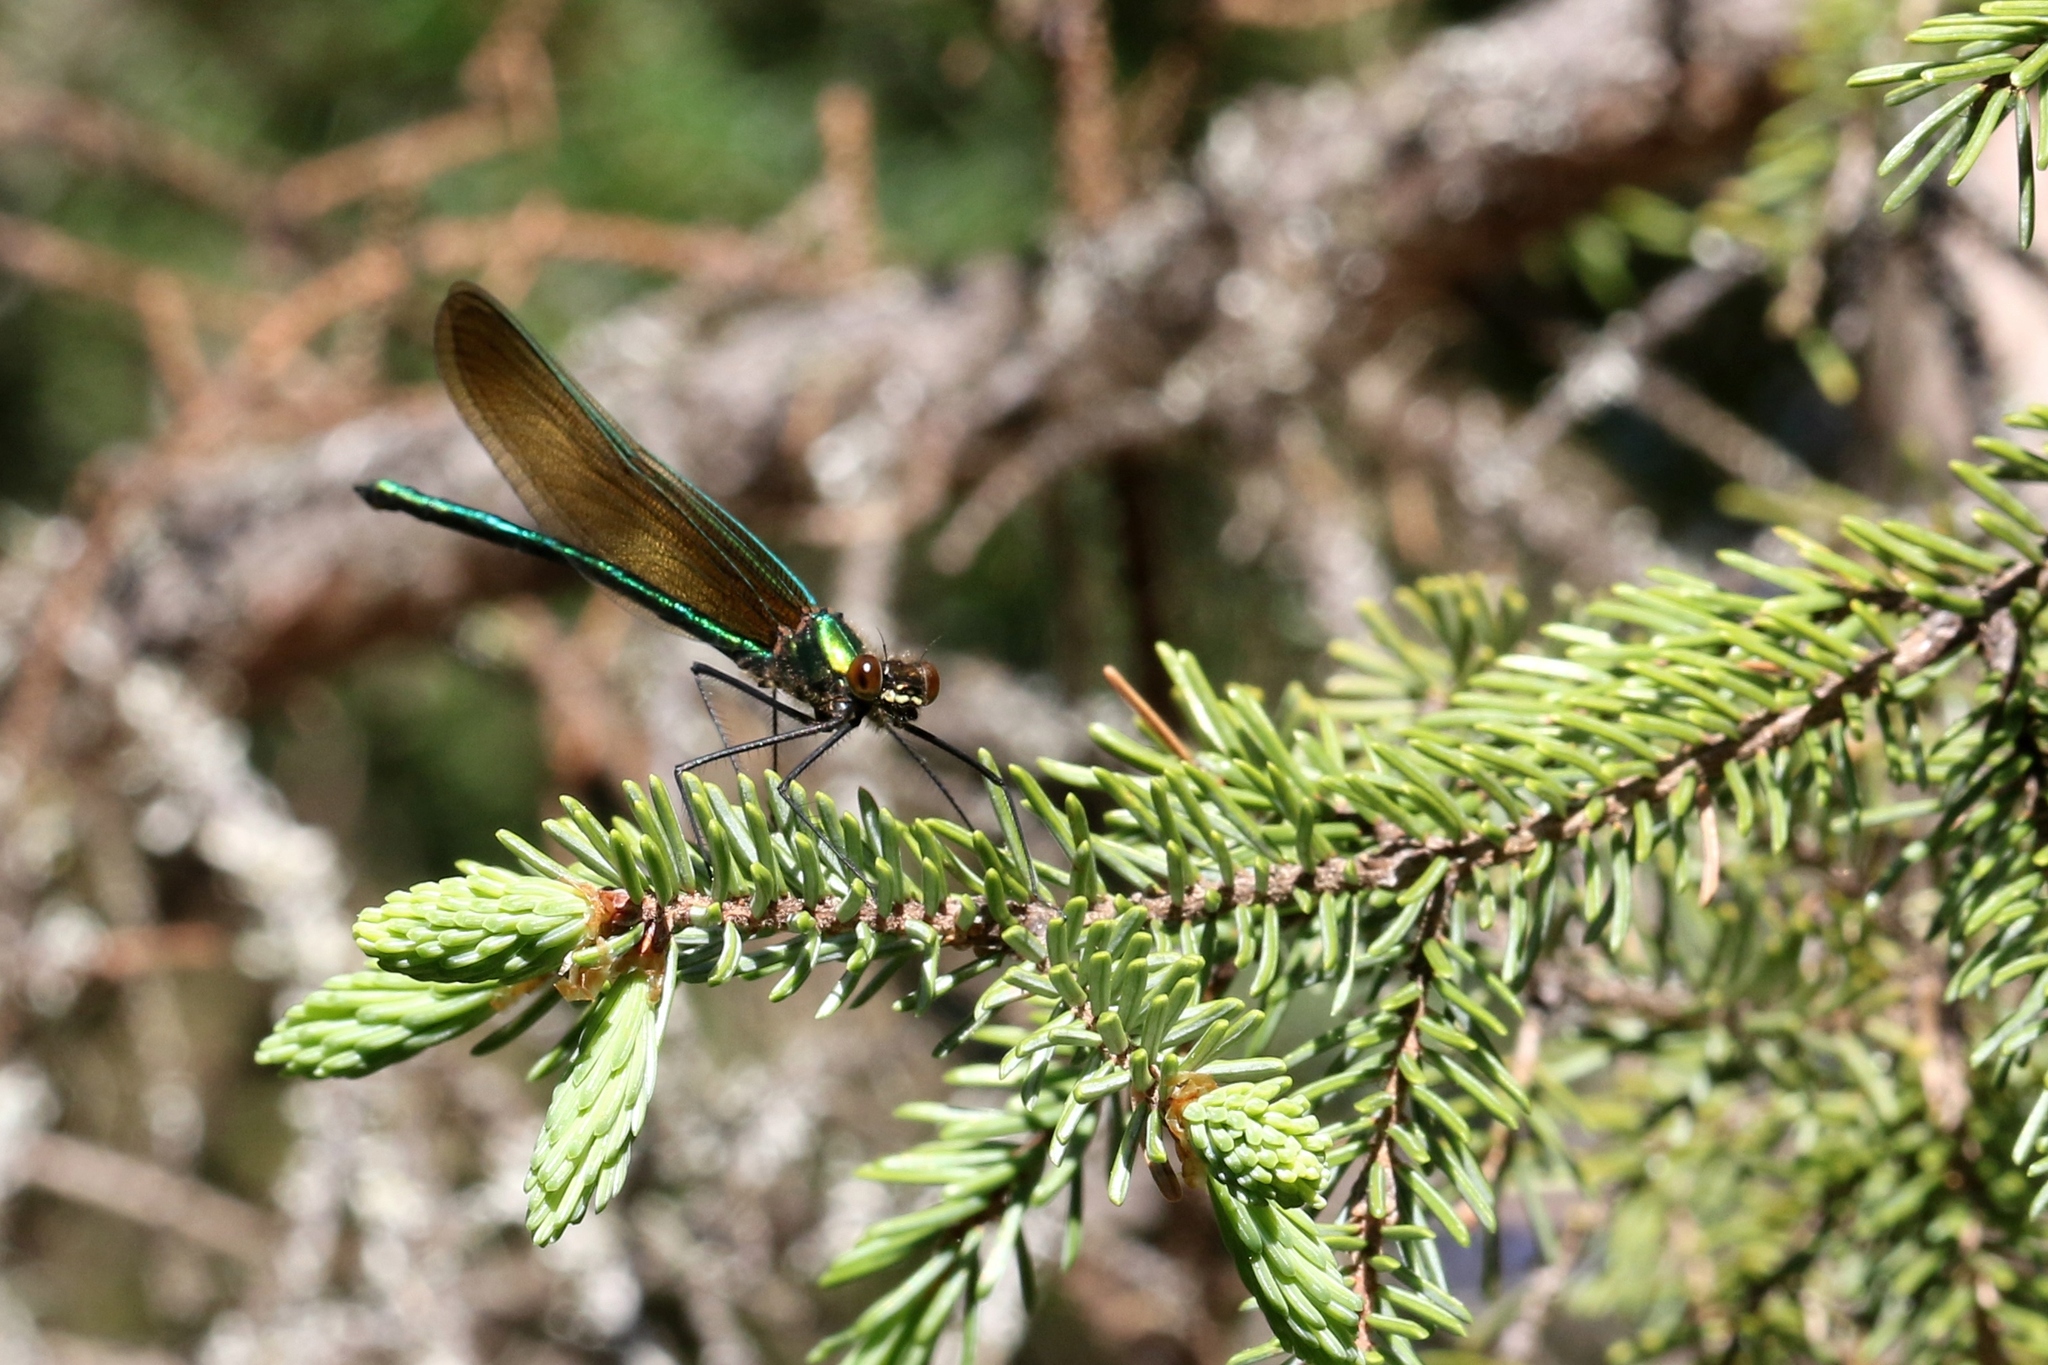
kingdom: Animalia
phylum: Arthropoda
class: Insecta
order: Odonata
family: Calopterygidae
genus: Calopteryx
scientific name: Calopteryx amata
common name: Superb jewelwing
